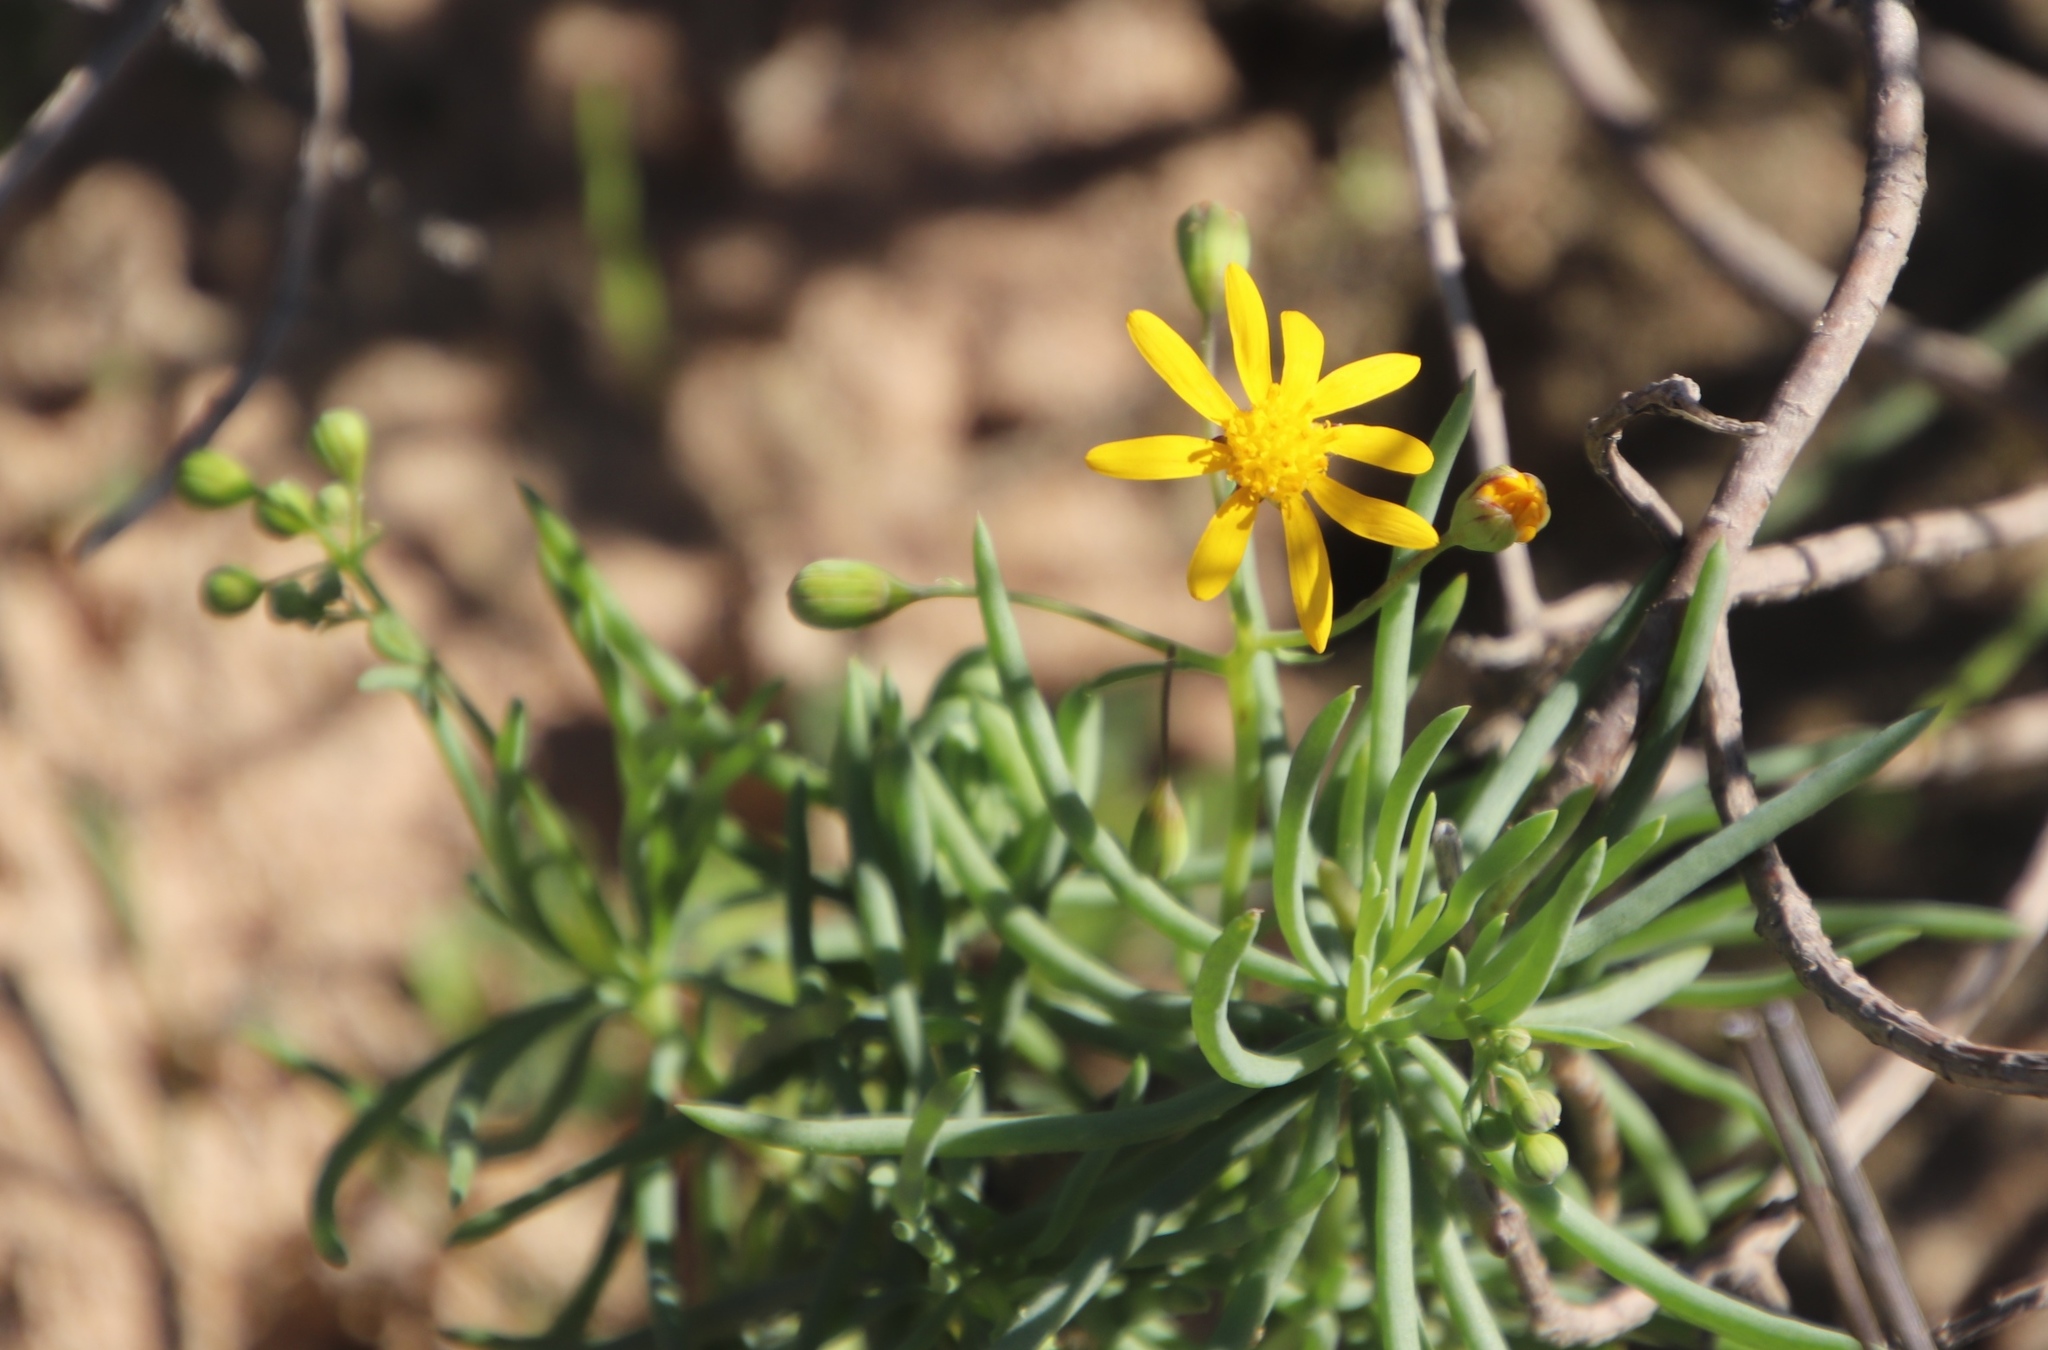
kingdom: Plantae
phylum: Tracheophyta
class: Magnoliopsida
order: Asterales
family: Asteraceae
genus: Crassothonna
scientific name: Crassothonna cylindrica
